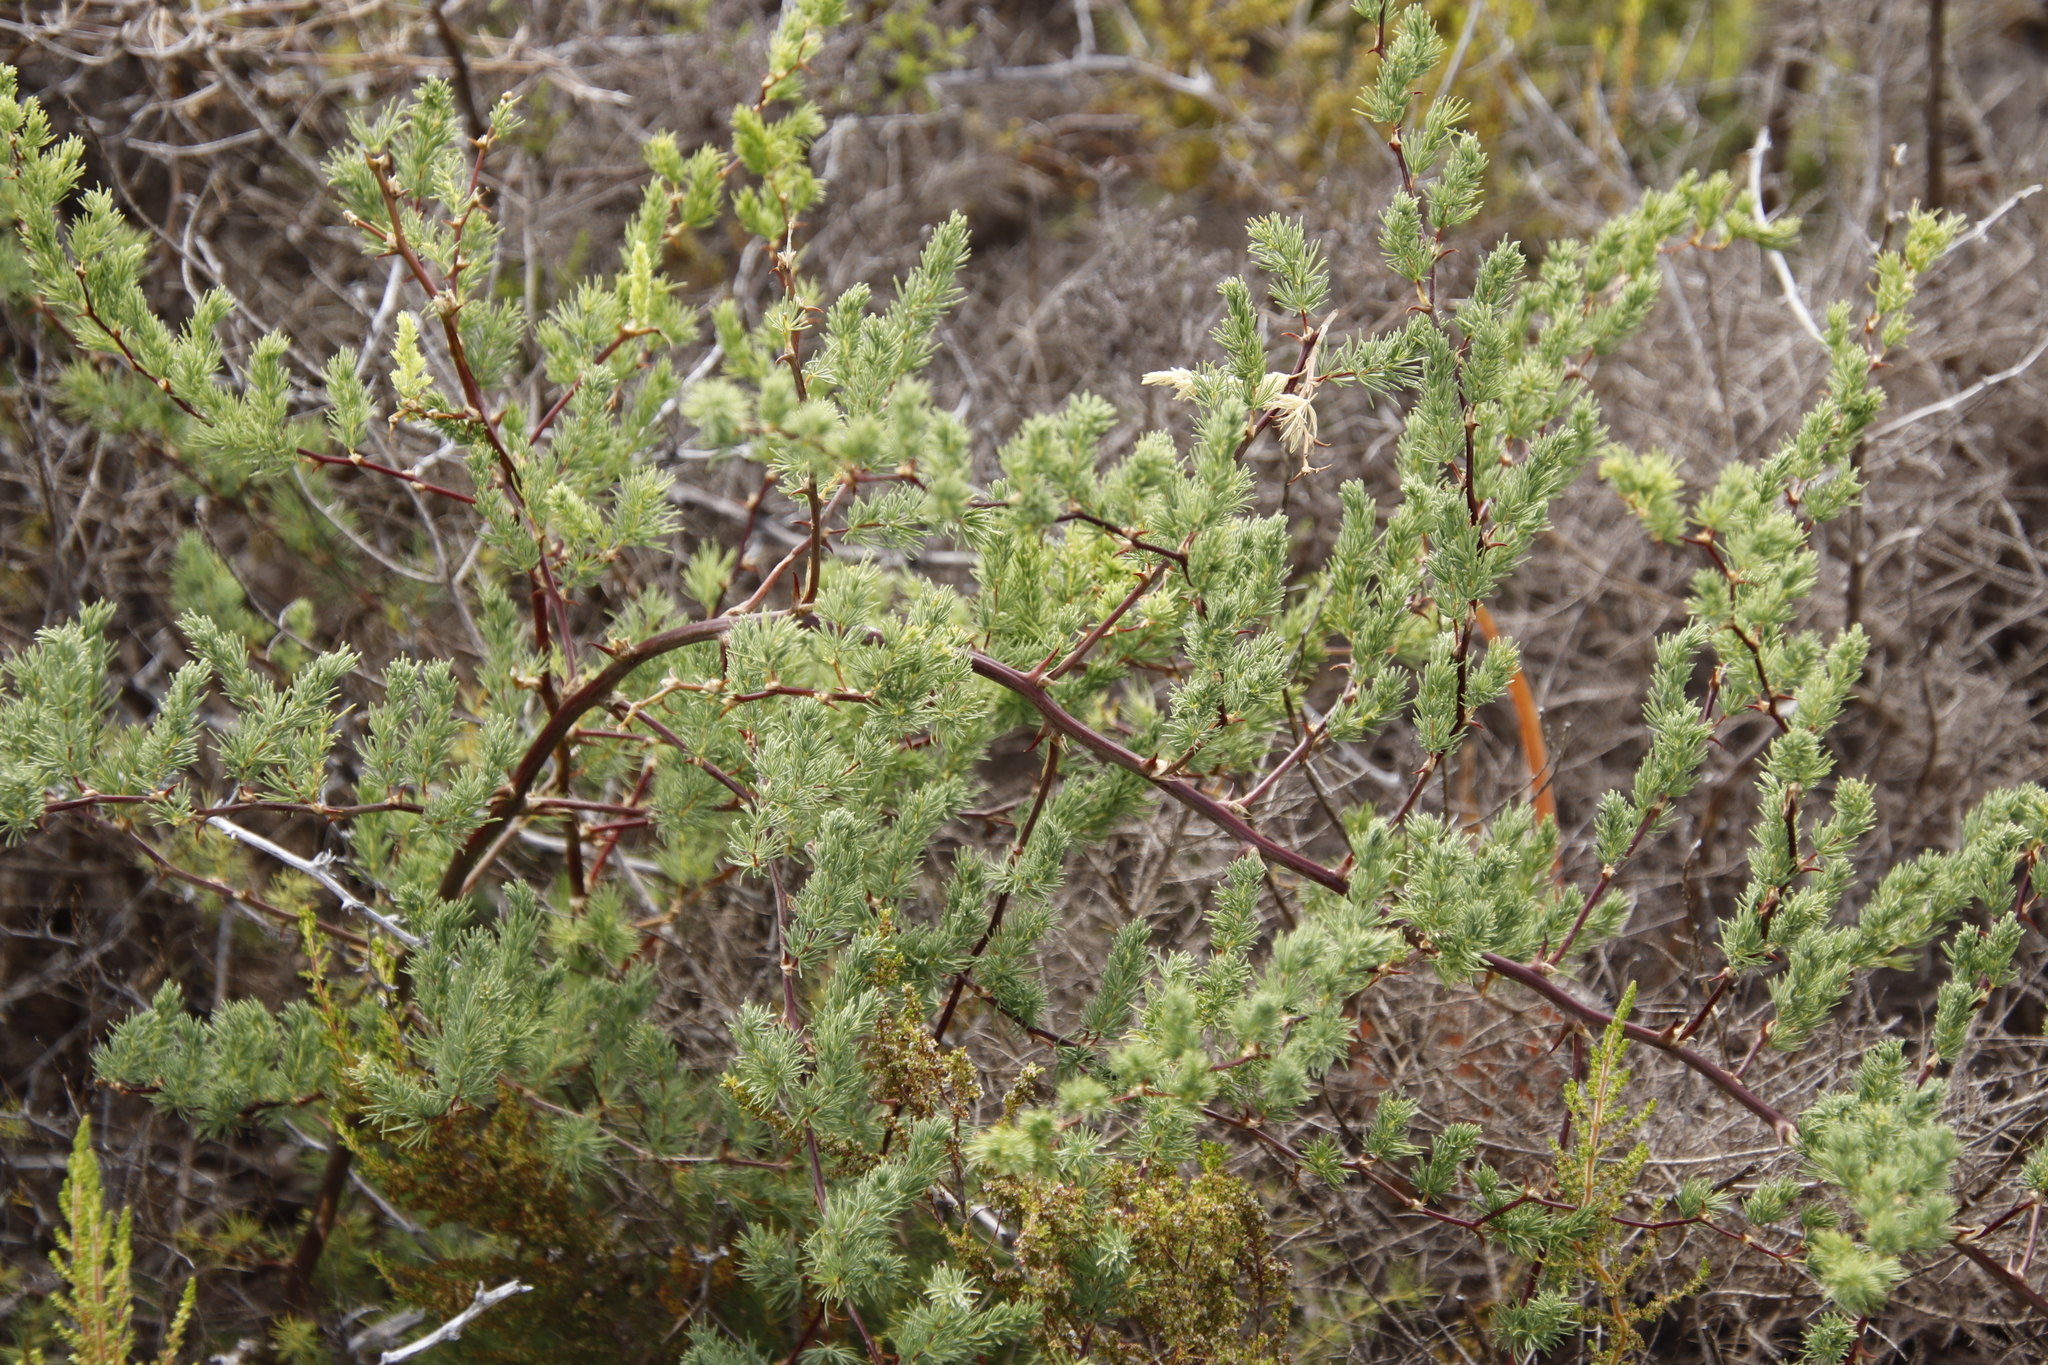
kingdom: Plantae
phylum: Tracheophyta
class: Liliopsida
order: Asparagales
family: Asparagaceae
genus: Asparagus
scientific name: Asparagus rubicundus
